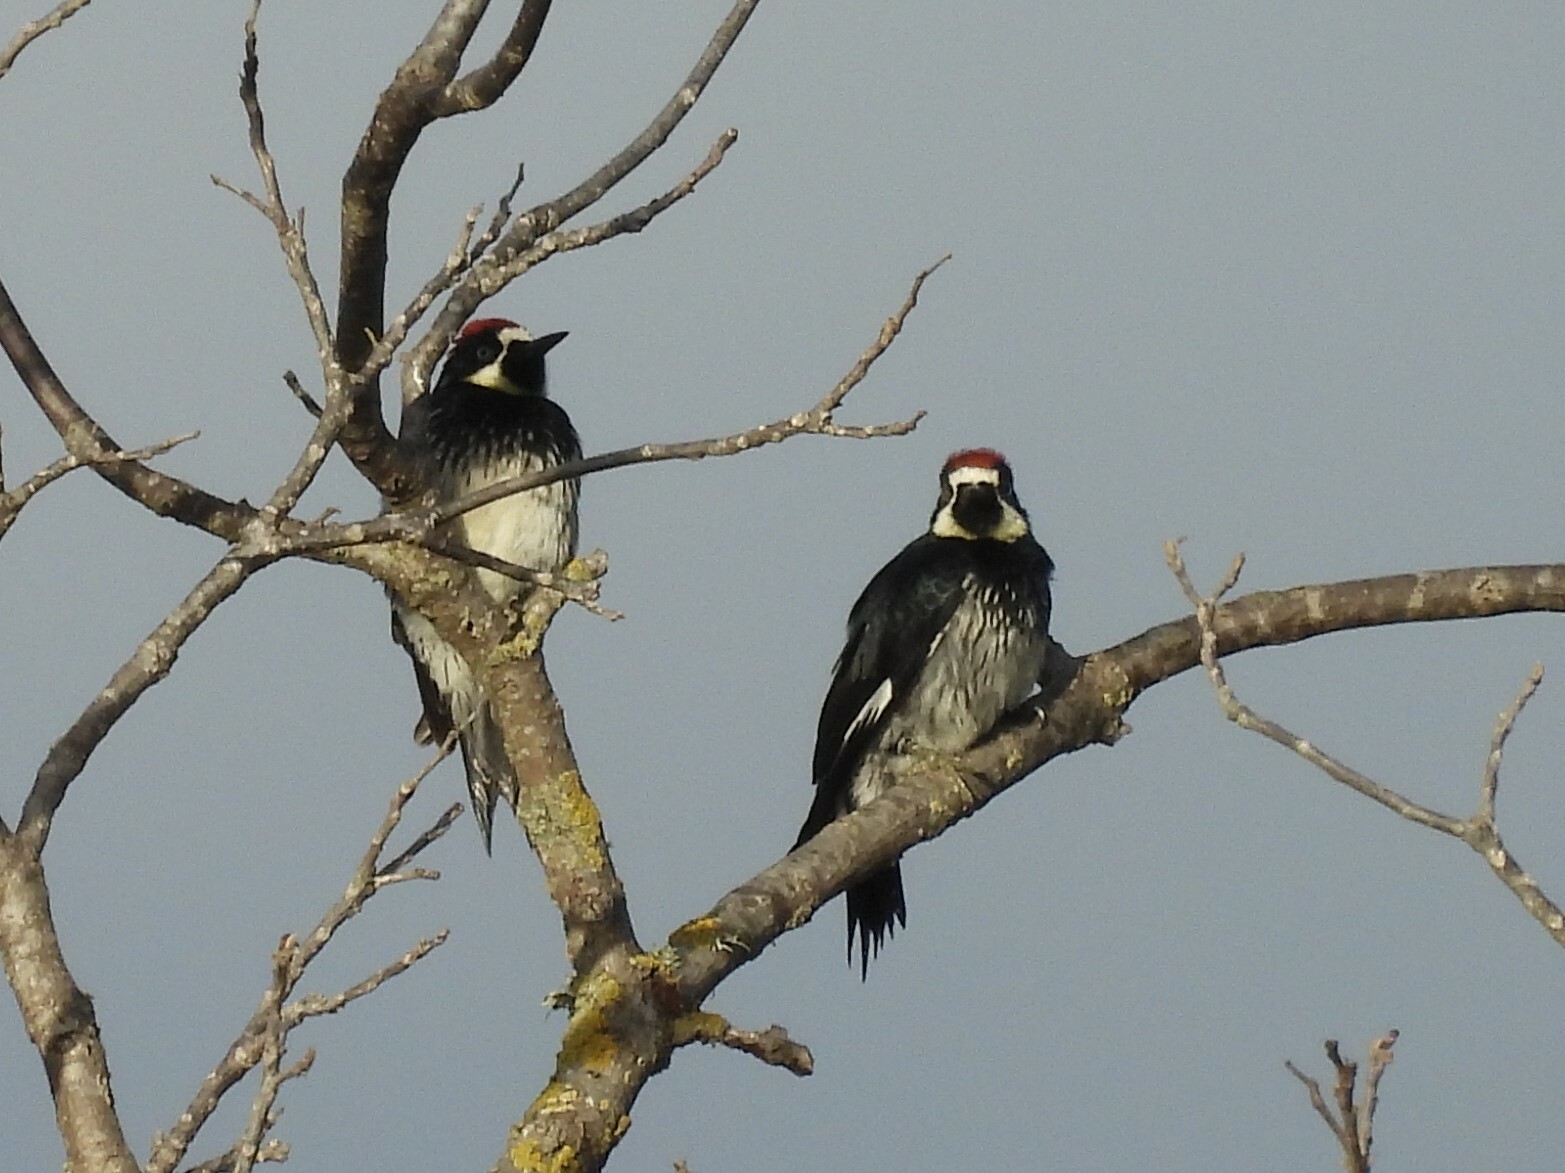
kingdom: Animalia
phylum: Chordata
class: Aves
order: Piciformes
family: Picidae
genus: Melanerpes
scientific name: Melanerpes formicivorus
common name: Acorn woodpecker
